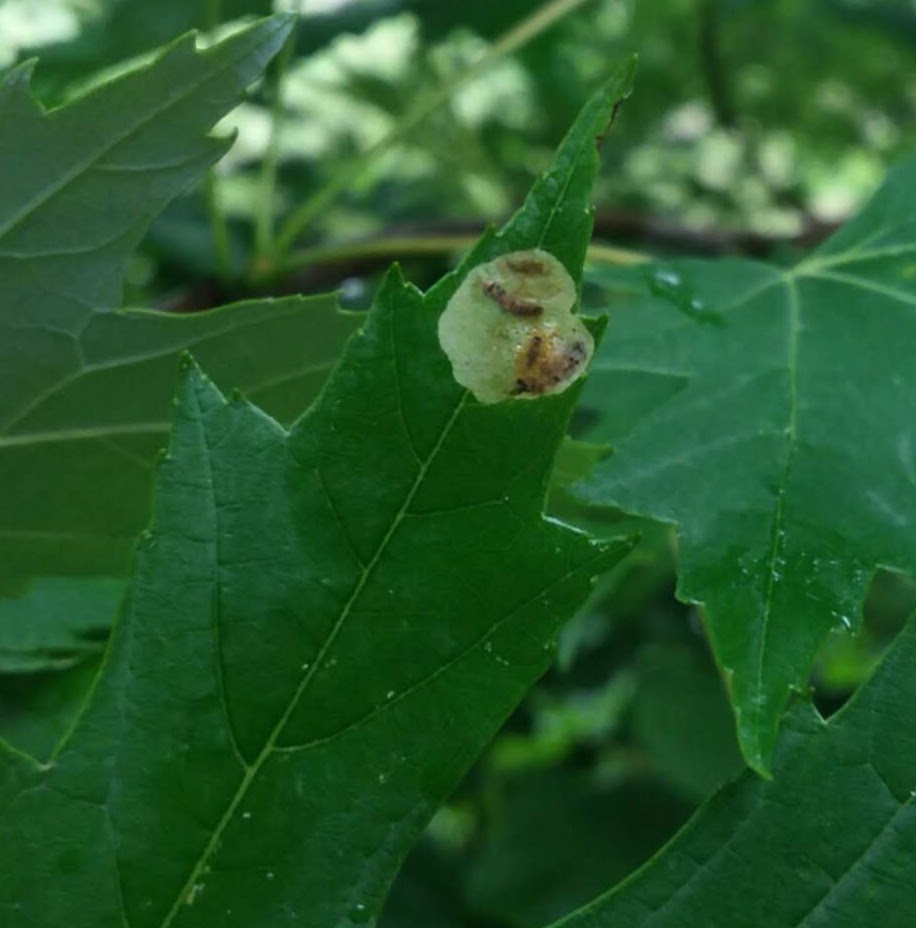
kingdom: Animalia
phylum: Arthropoda
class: Insecta
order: Lepidoptera
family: Gracillariidae
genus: Cameraria
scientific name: Cameraria saccharella
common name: Sugar maple blotchminer
